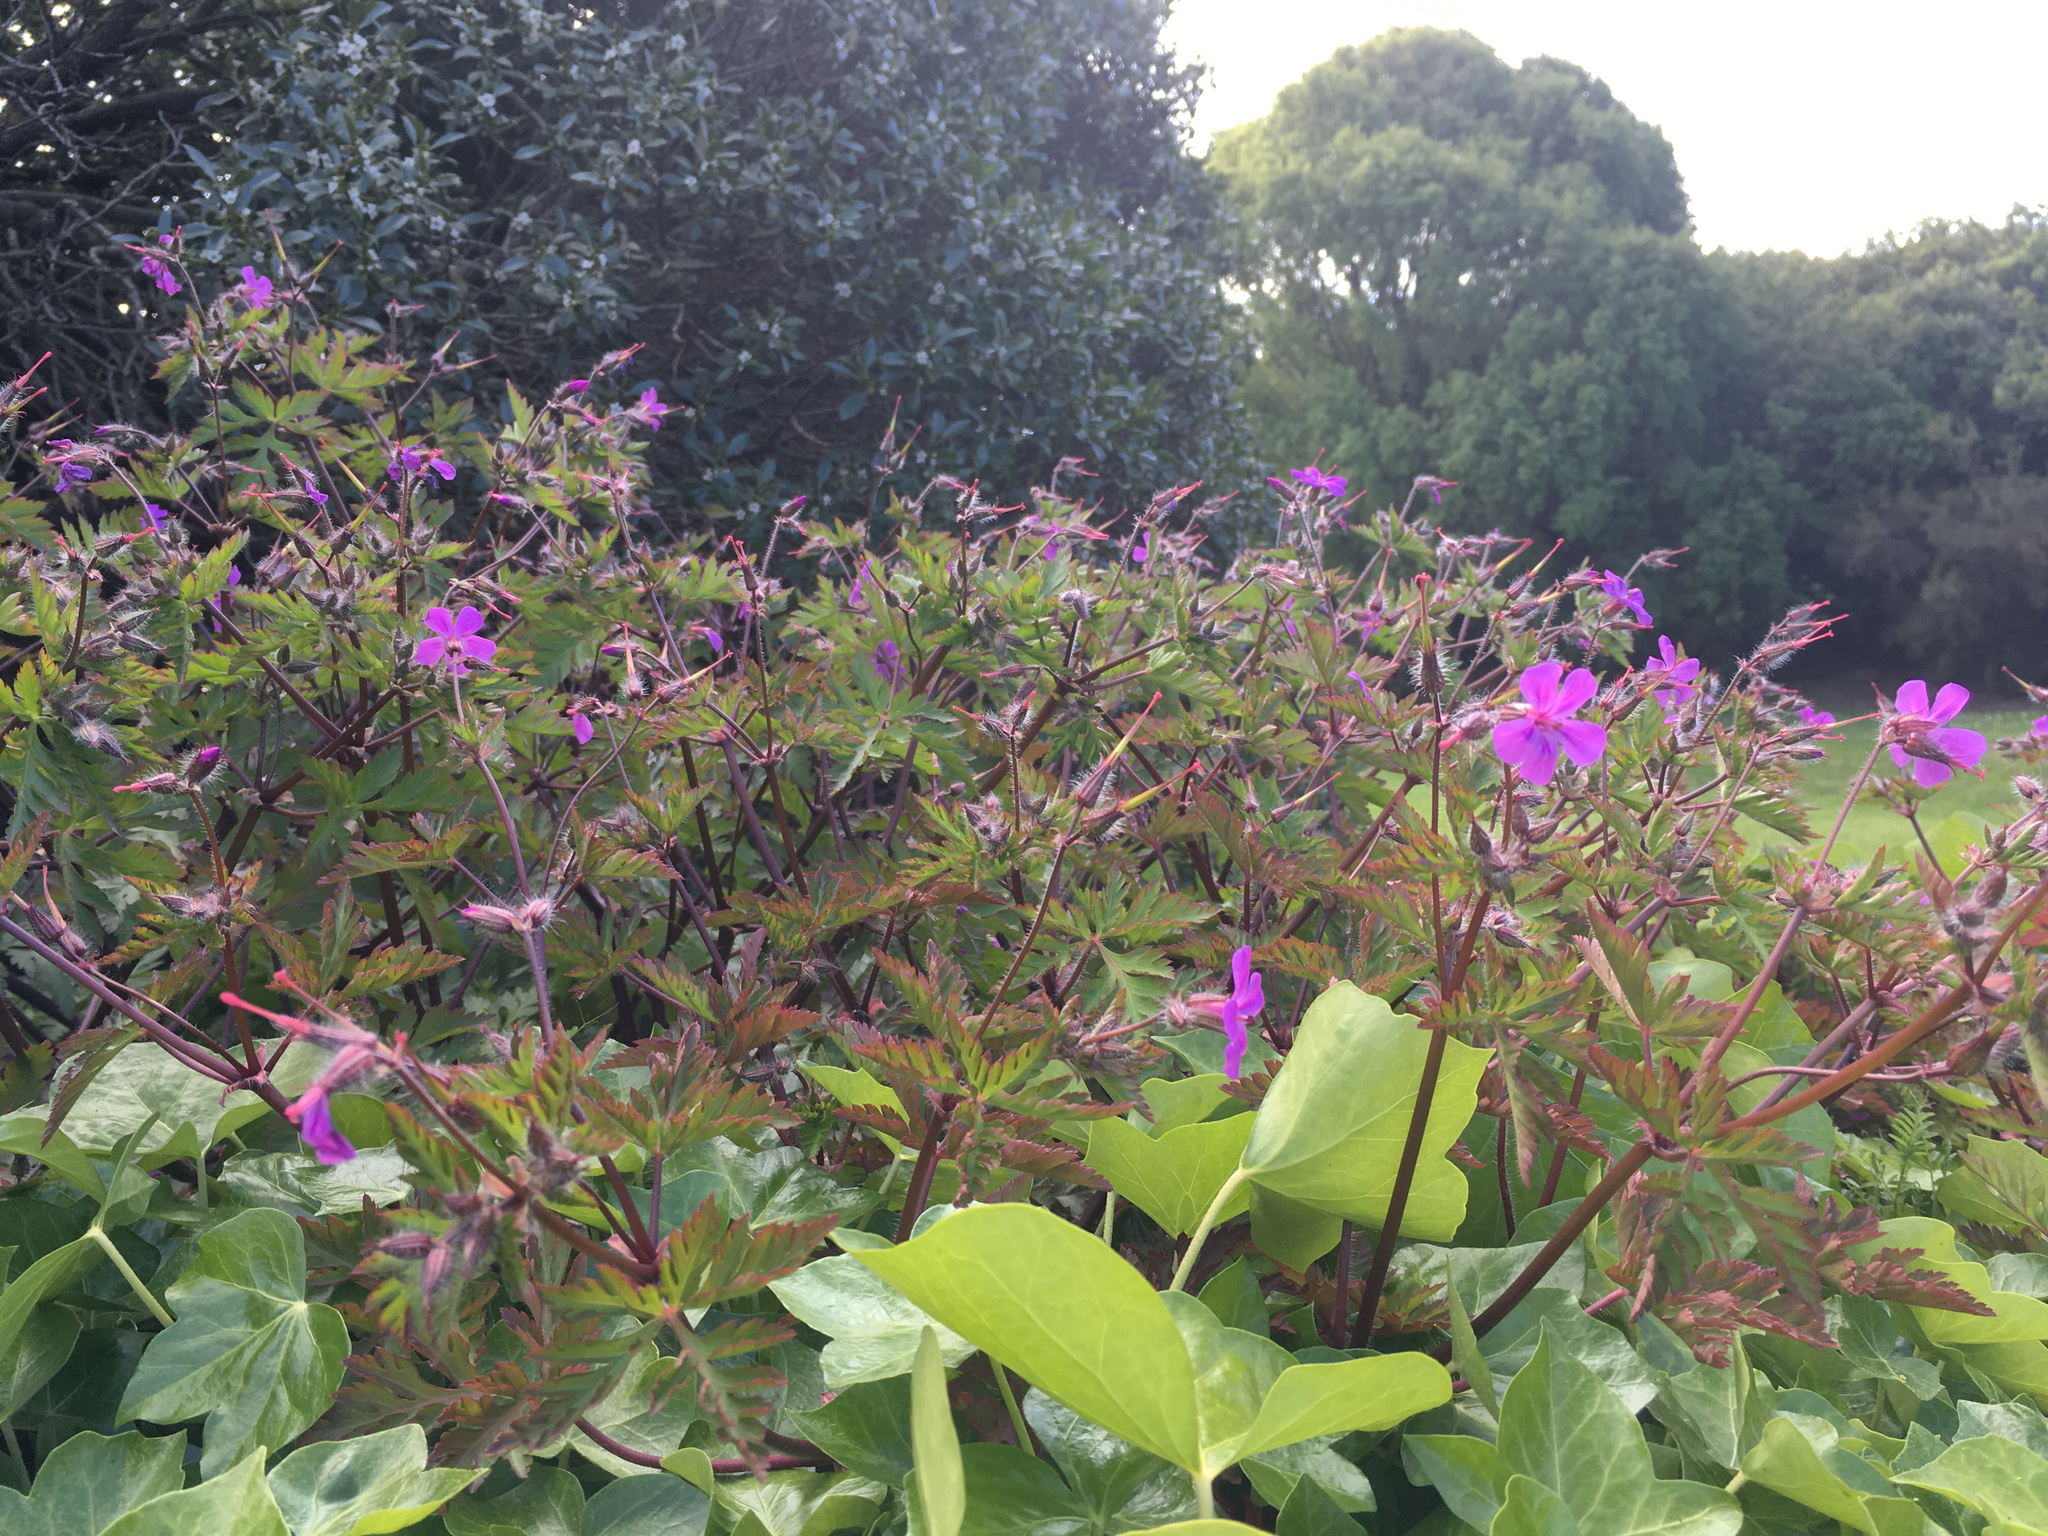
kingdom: Plantae
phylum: Tracheophyta
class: Magnoliopsida
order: Geraniales
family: Geraniaceae
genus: Geranium
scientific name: Geranium yeoi
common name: Greater herb robert
